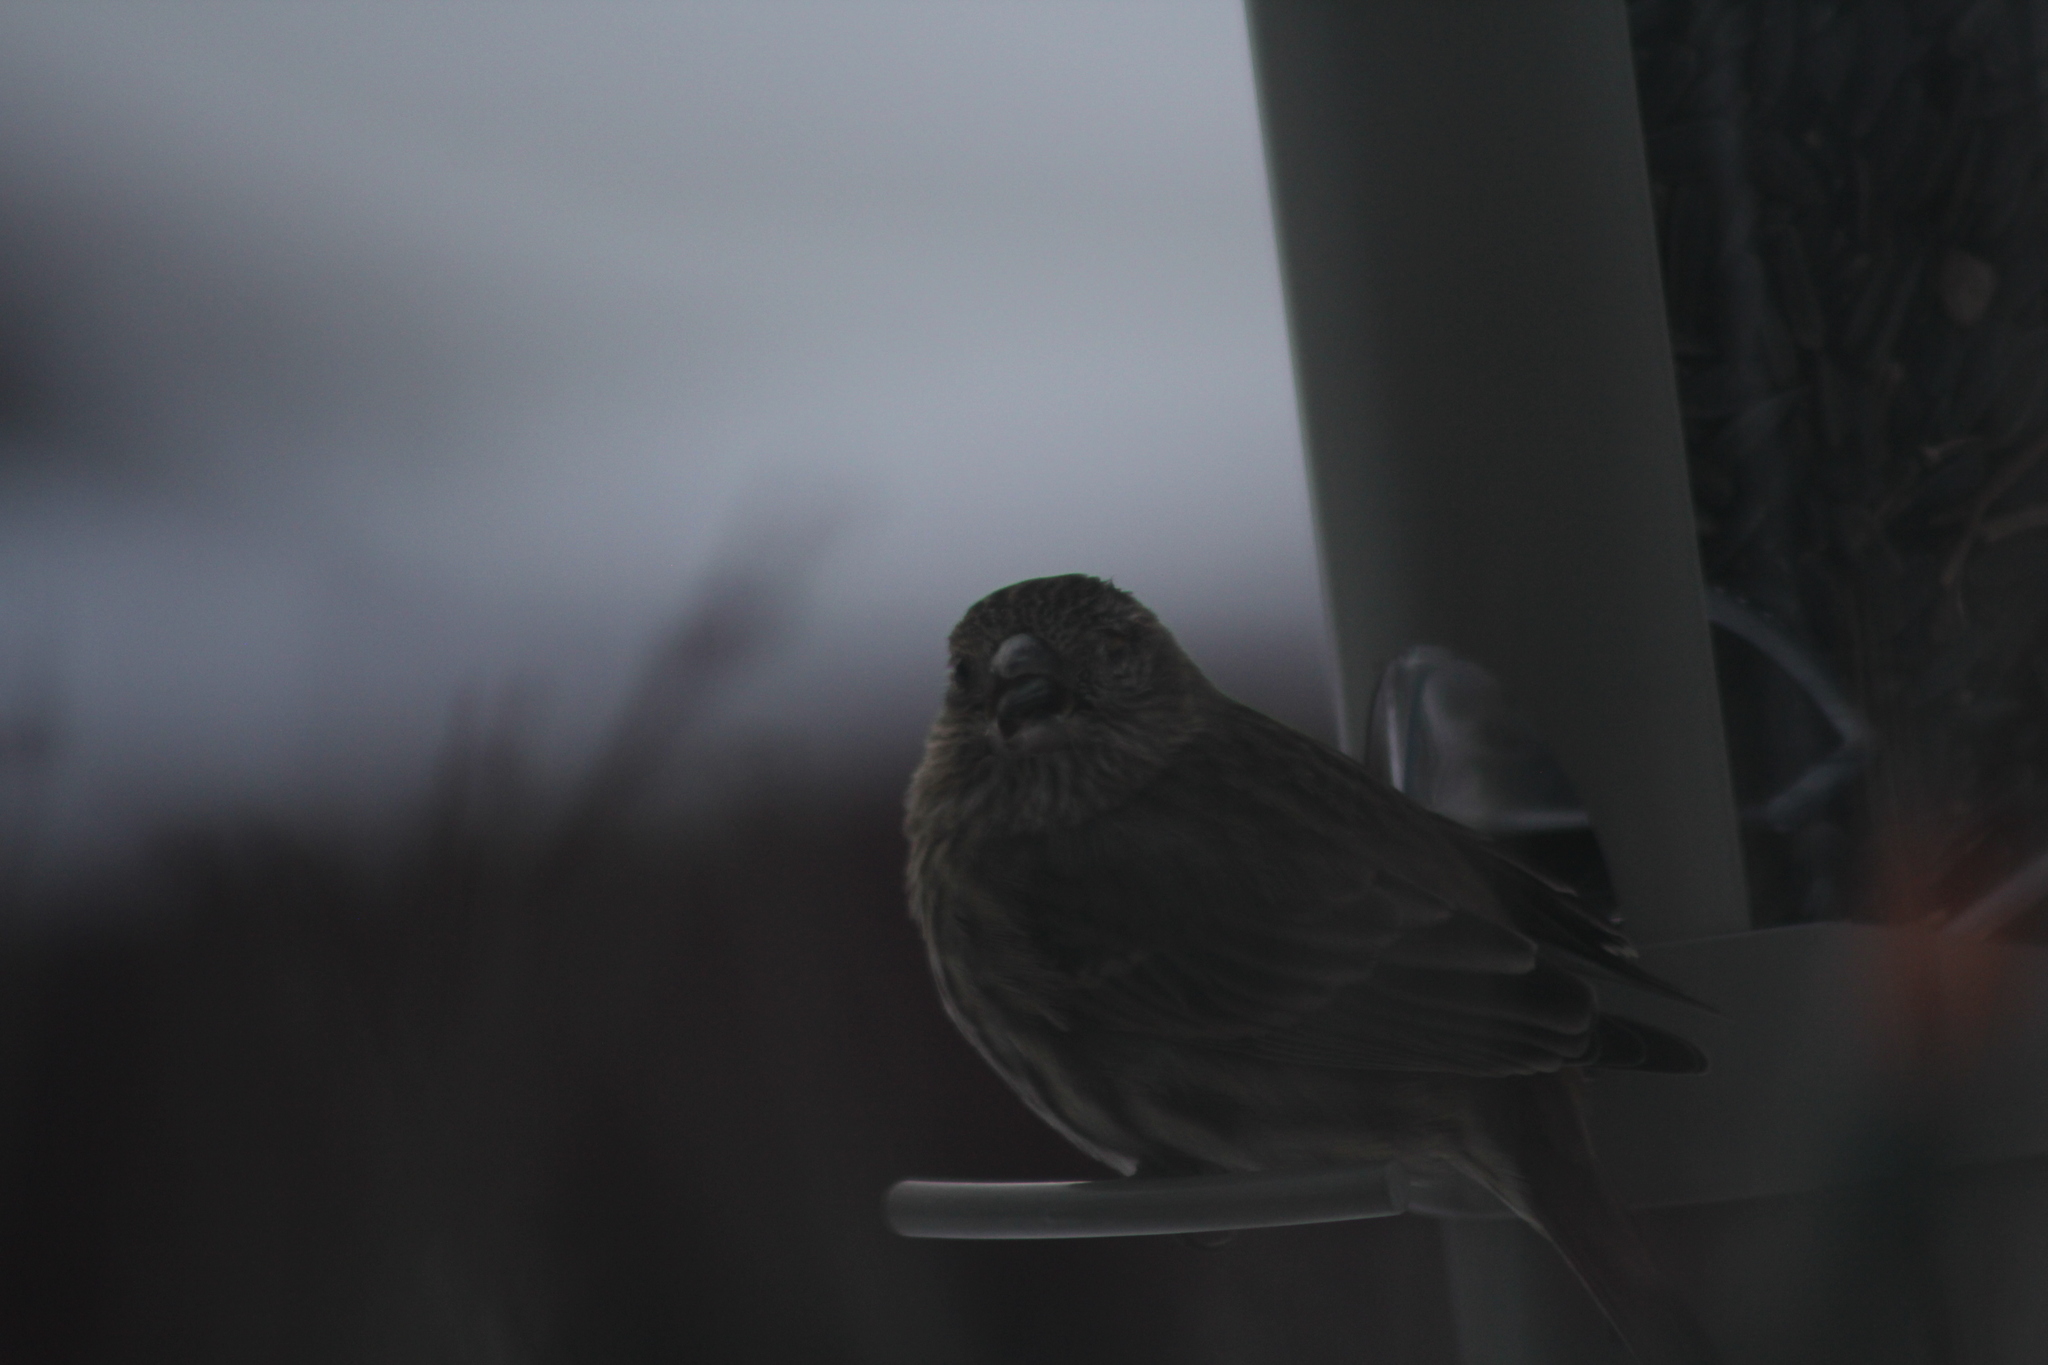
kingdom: Animalia
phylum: Chordata
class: Aves
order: Passeriformes
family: Fringillidae
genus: Haemorhous
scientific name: Haemorhous mexicanus
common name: House finch
